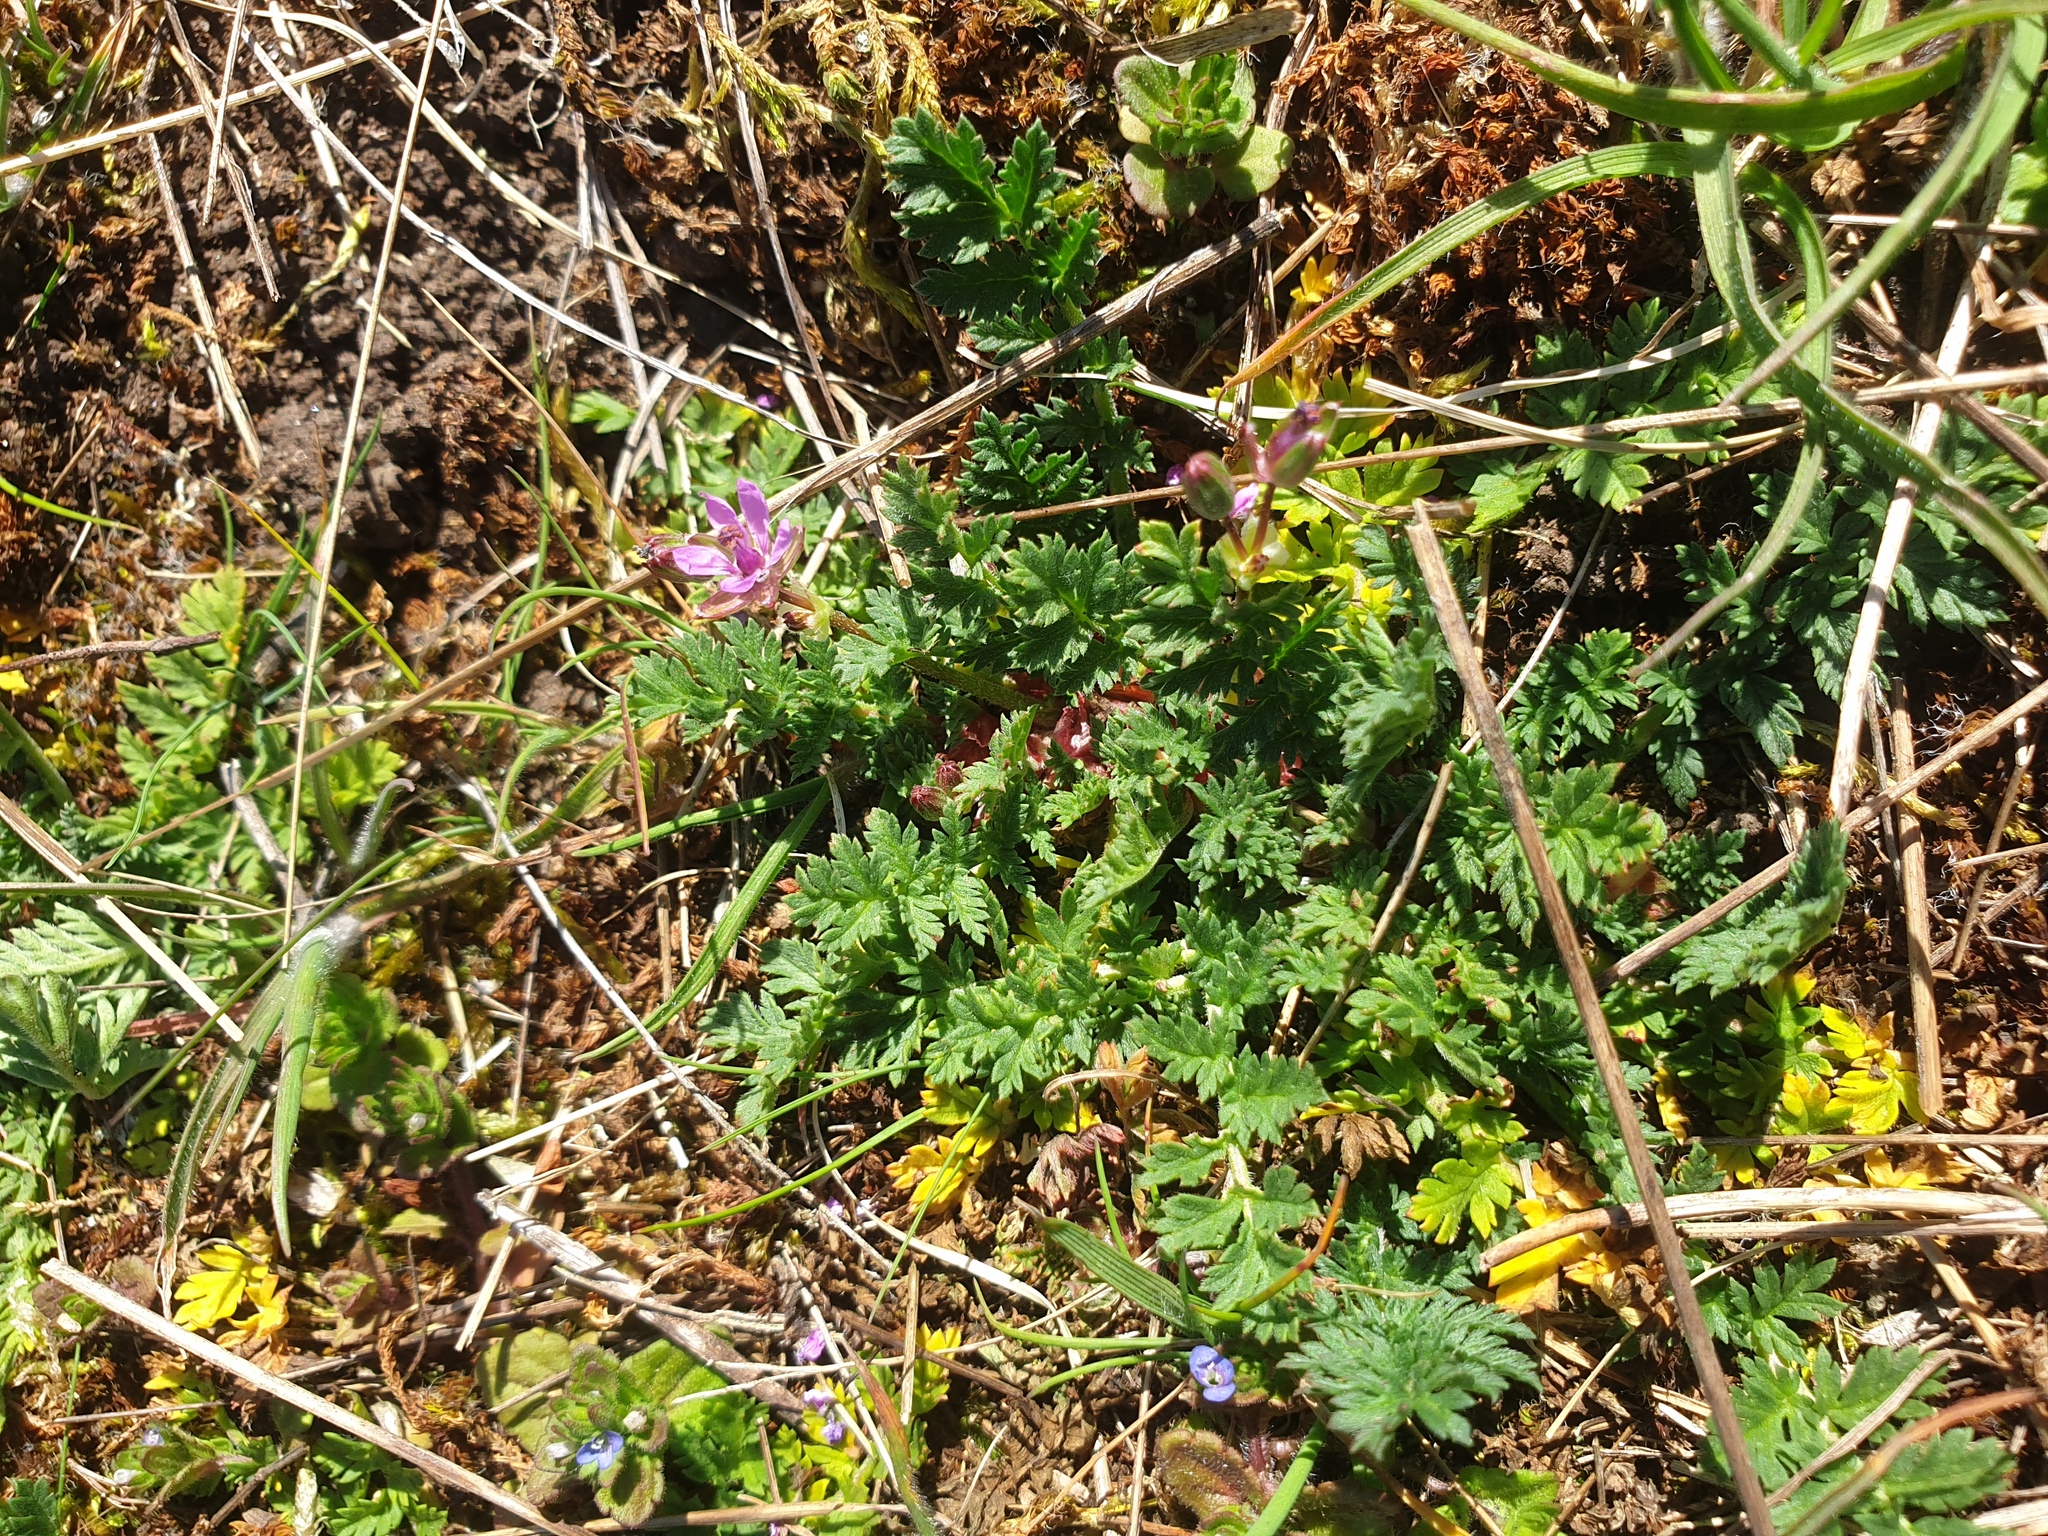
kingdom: Plantae
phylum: Tracheophyta
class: Magnoliopsida
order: Geraniales
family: Geraniaceae
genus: Erodium
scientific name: Erodium cicutarium
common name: Common stork's-bill
